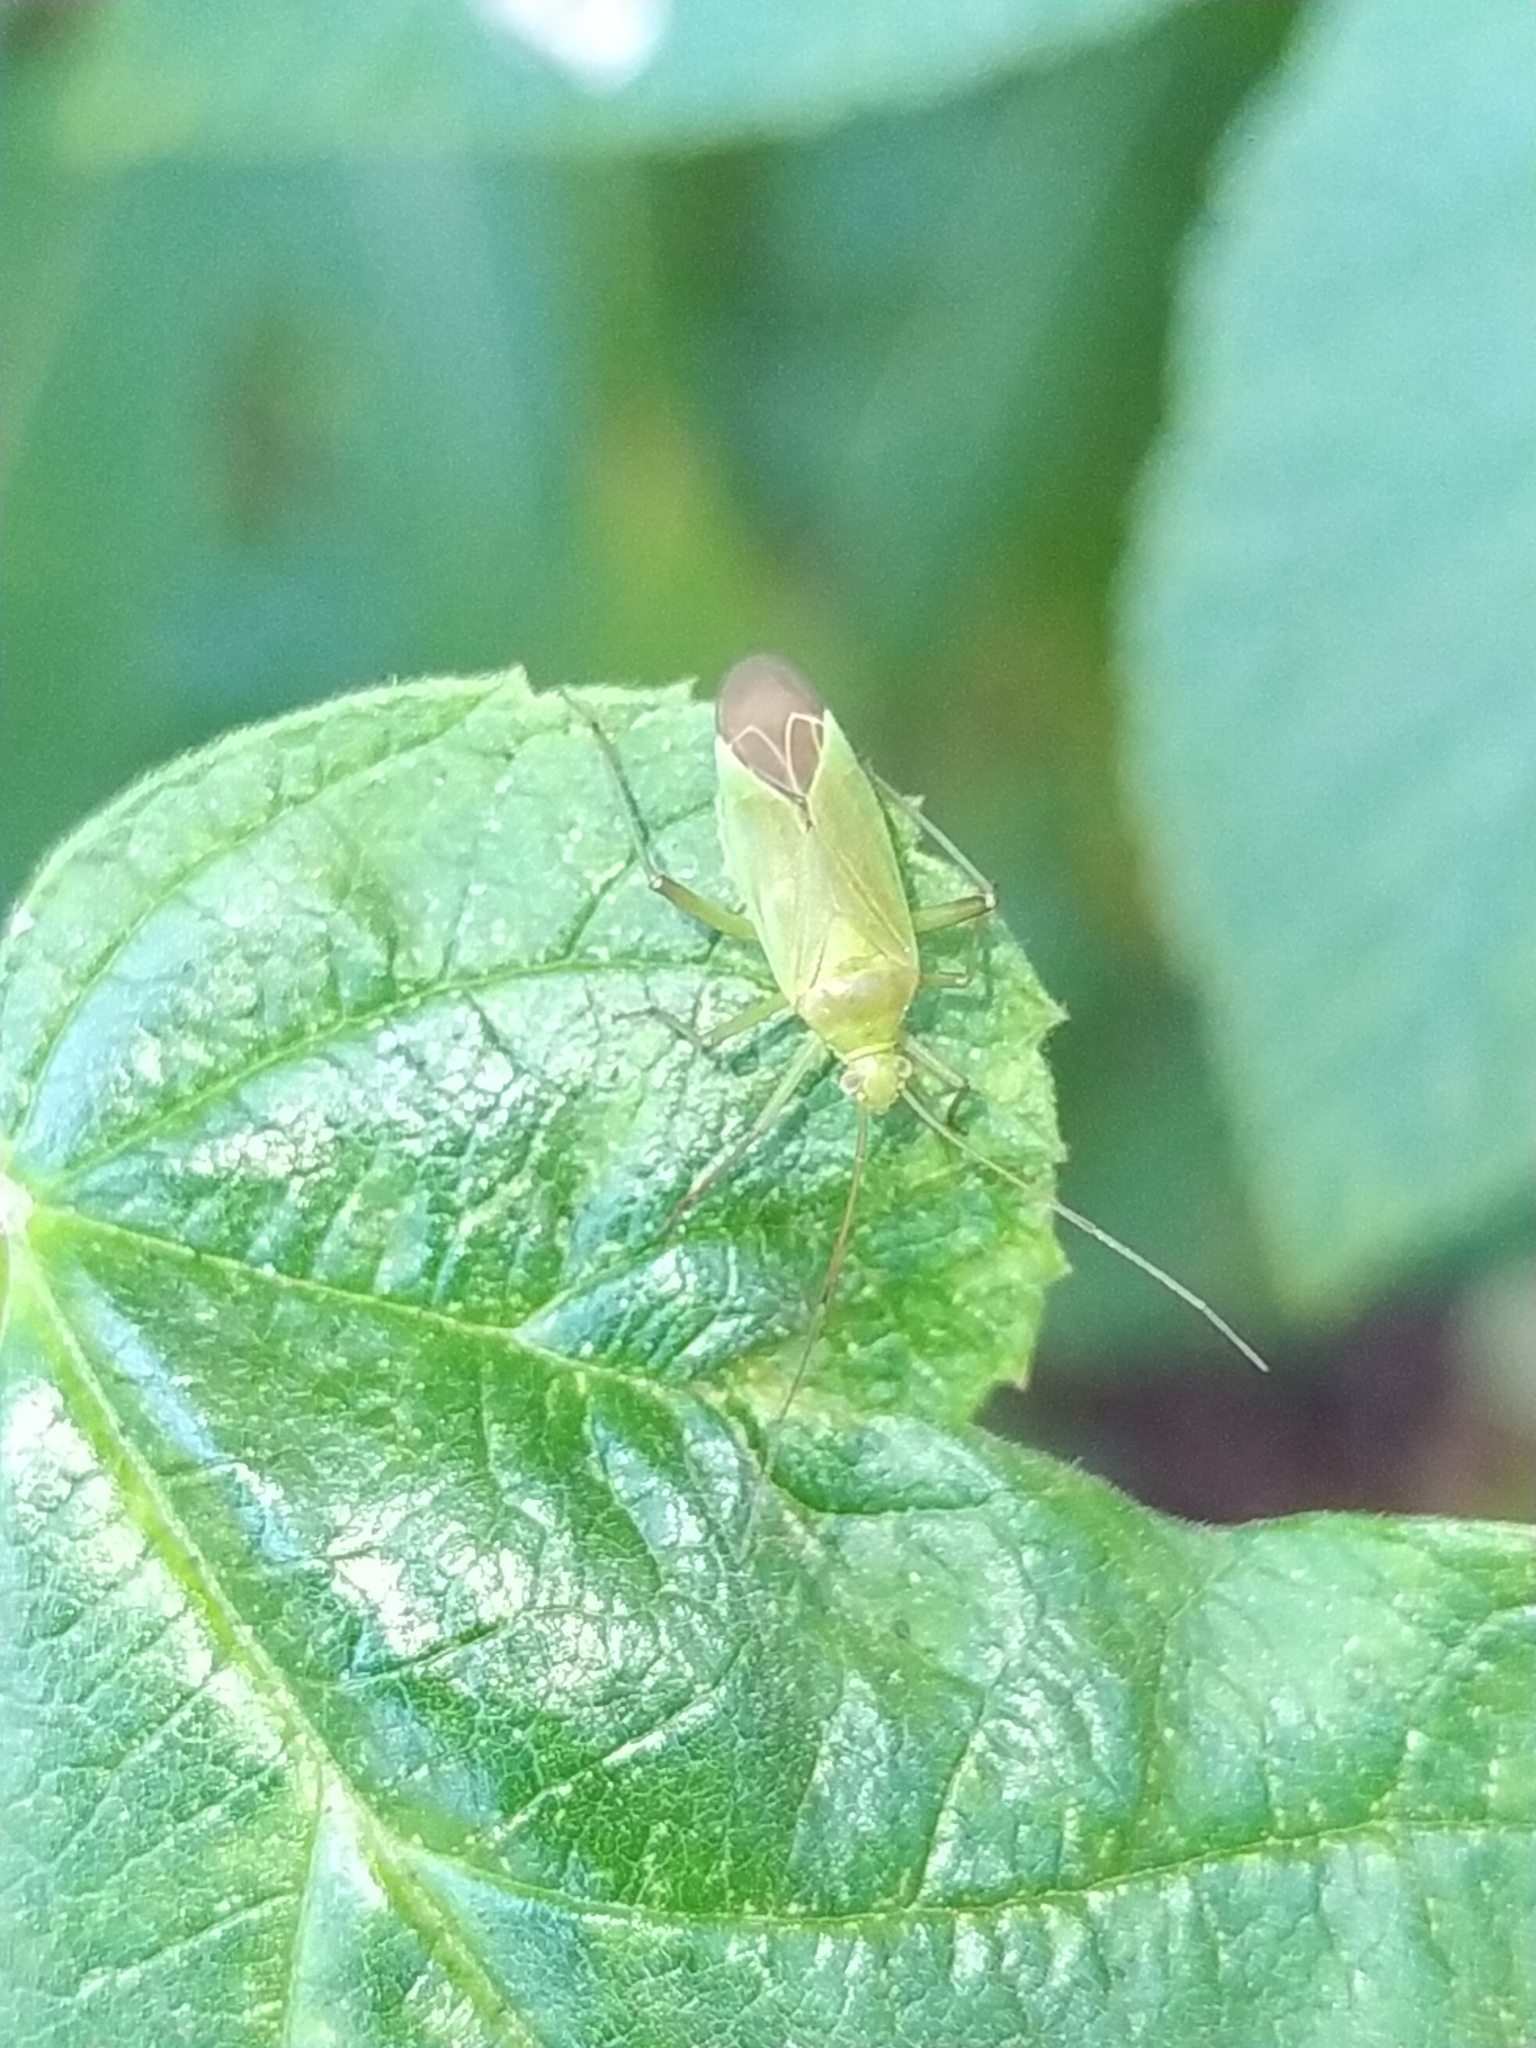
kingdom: Animalia
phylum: Arthropoda
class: Insecta
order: Hemiptera
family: Miridae
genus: Calocoris
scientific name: Calocoris affinis
